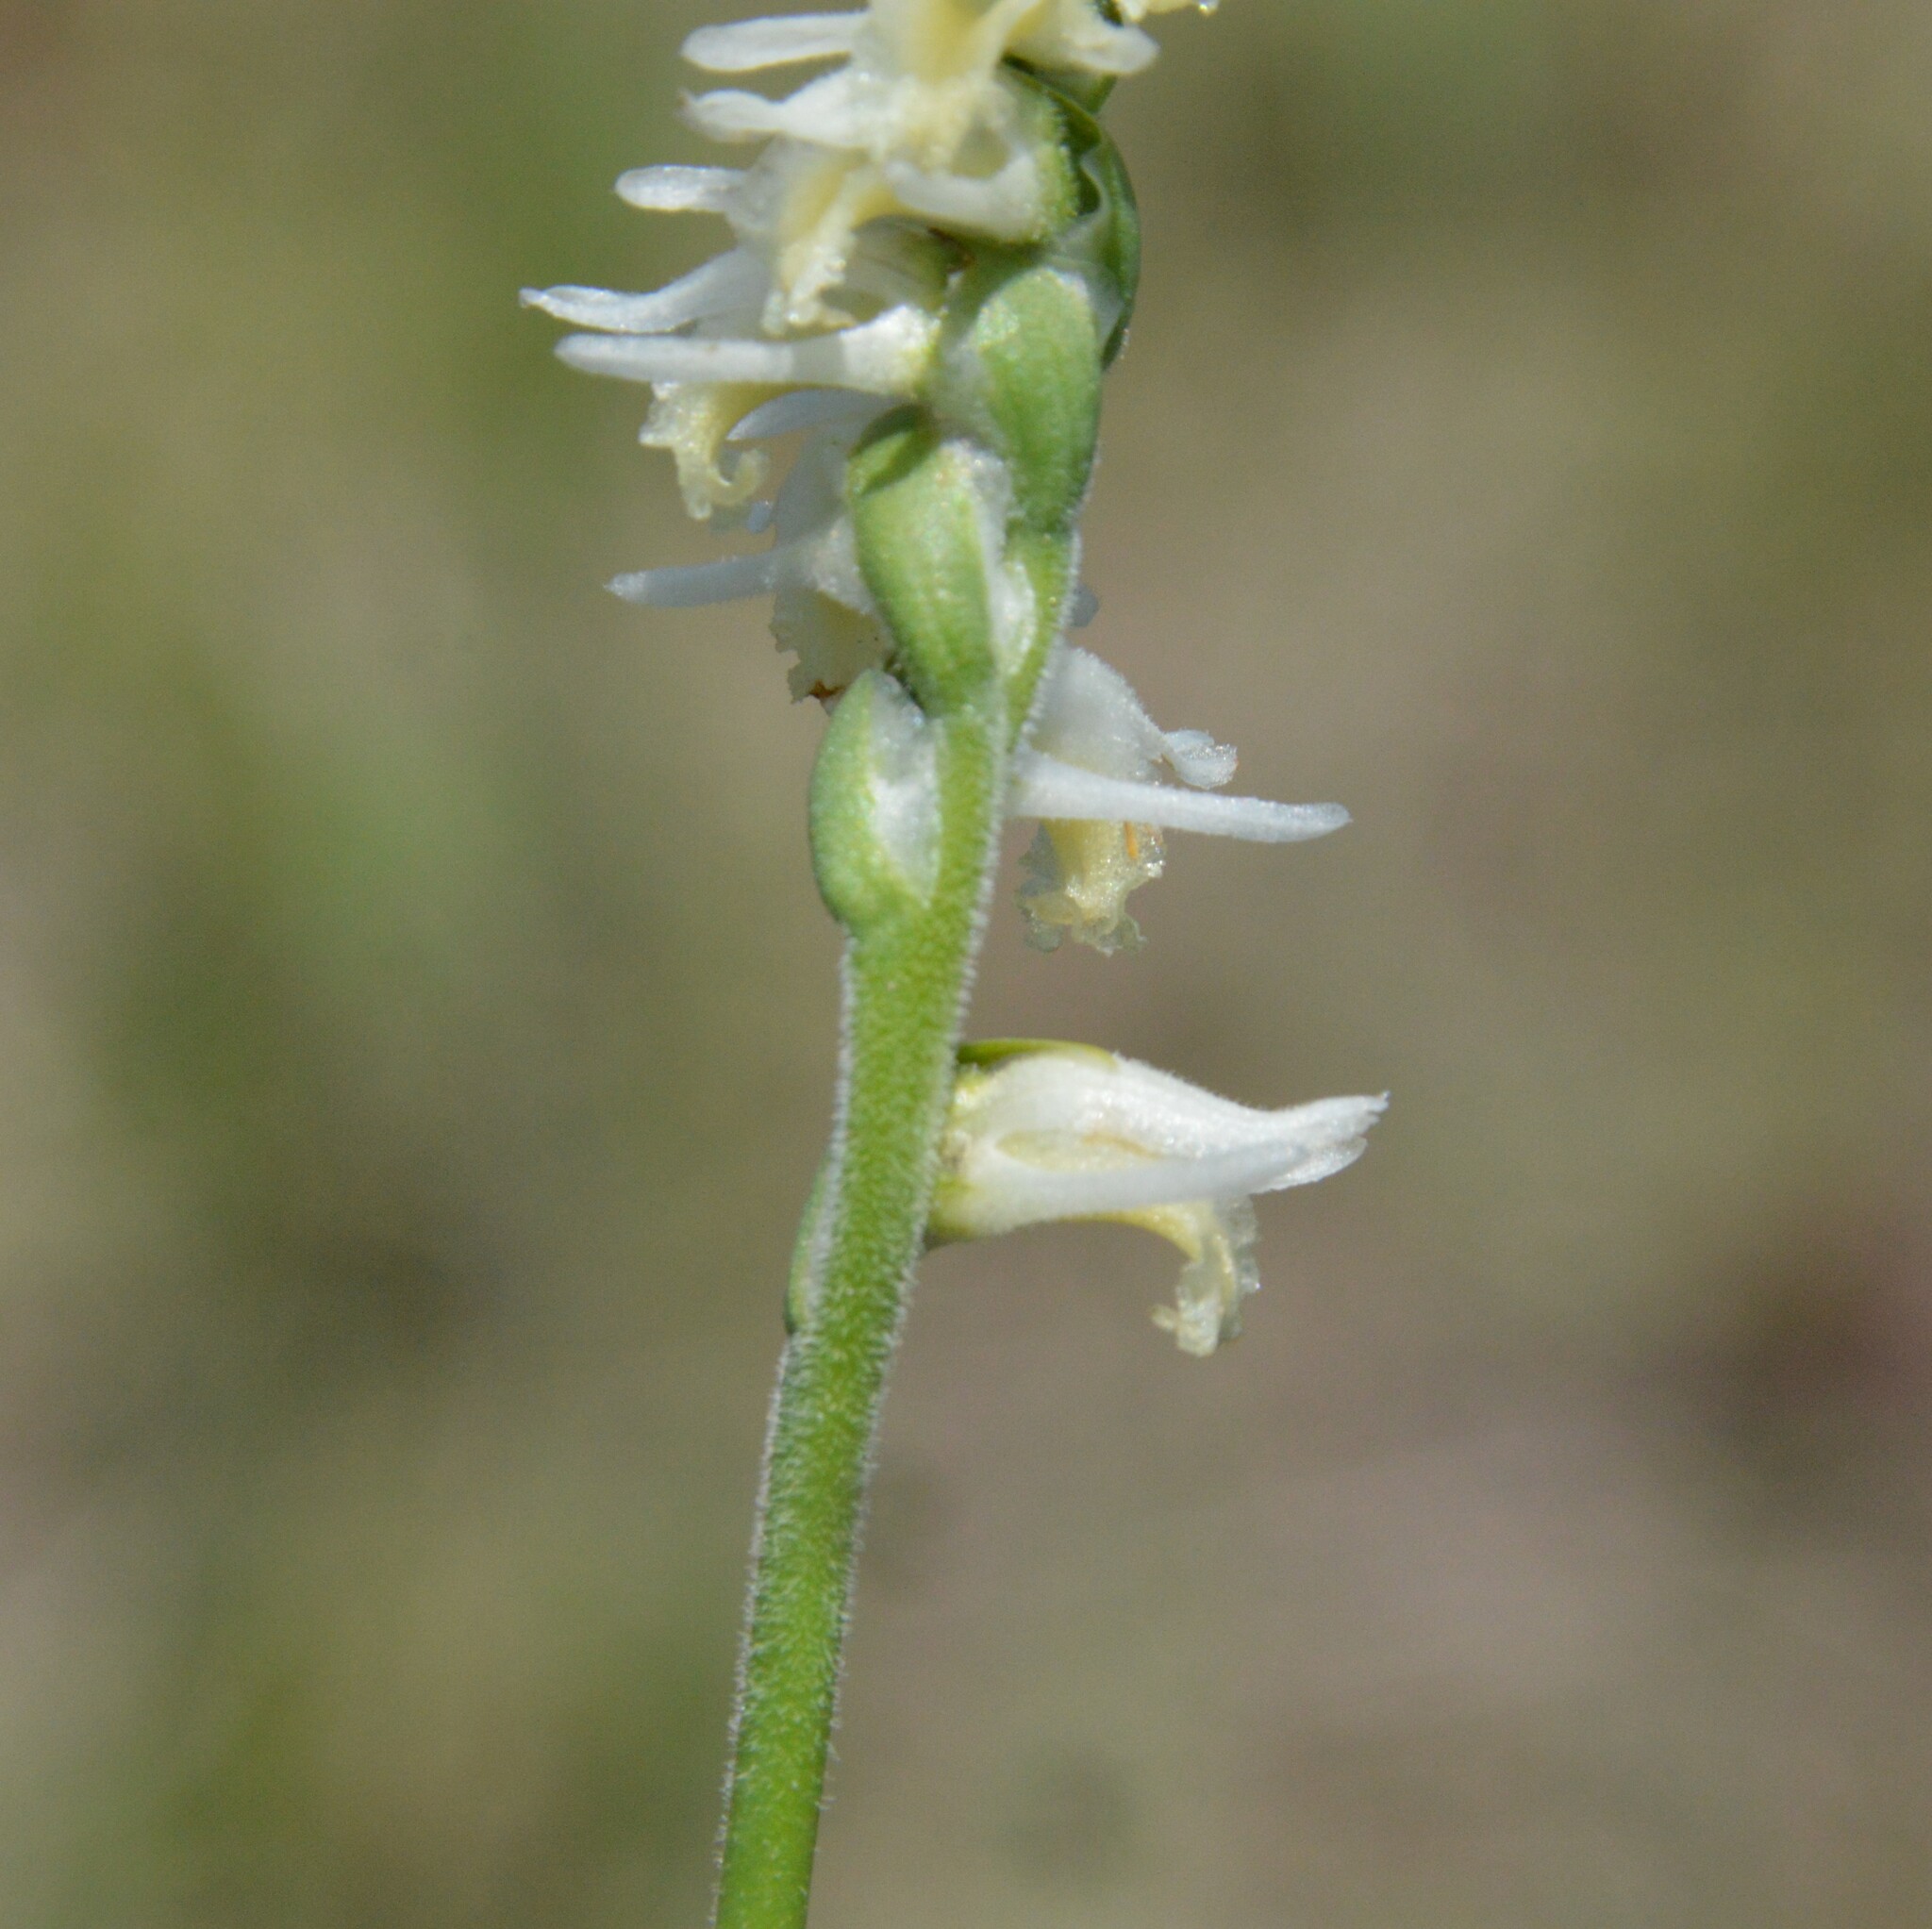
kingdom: Plantae
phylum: Tracheophyta
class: Liliopsida
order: Asparagales
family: Orchidaceae
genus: Spiranthes
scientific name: Spiranthes vernalis
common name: Spring ladies'-tresses
